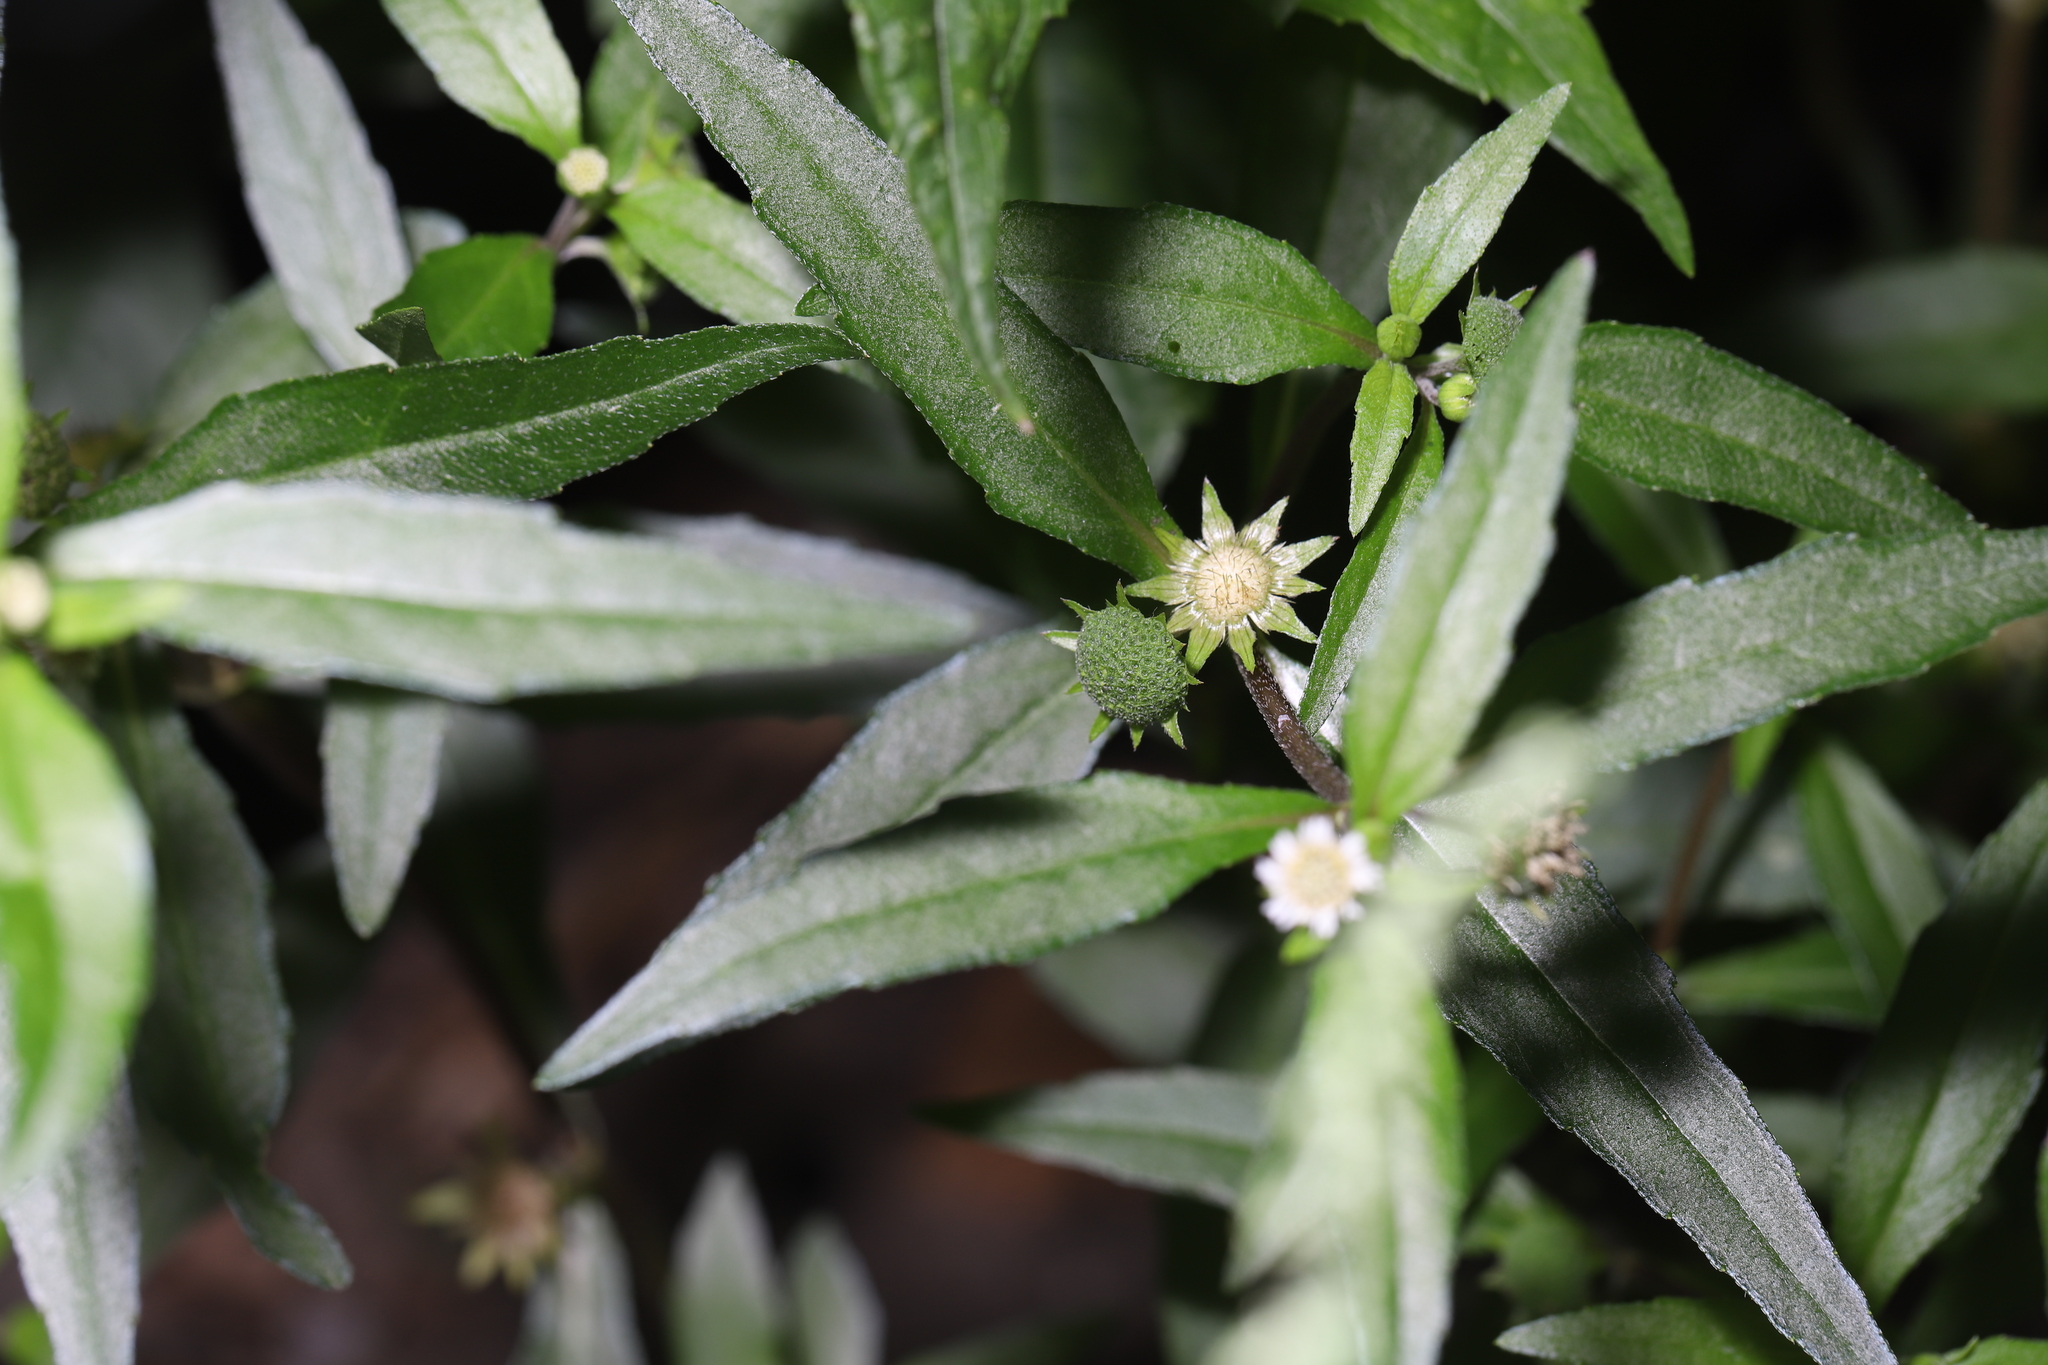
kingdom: Plantae
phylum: Tracheophyta
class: Magnoliopsida
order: Asterales
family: Asteraceae
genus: Eclipta
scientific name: Eclipta prostrata
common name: False daisy
